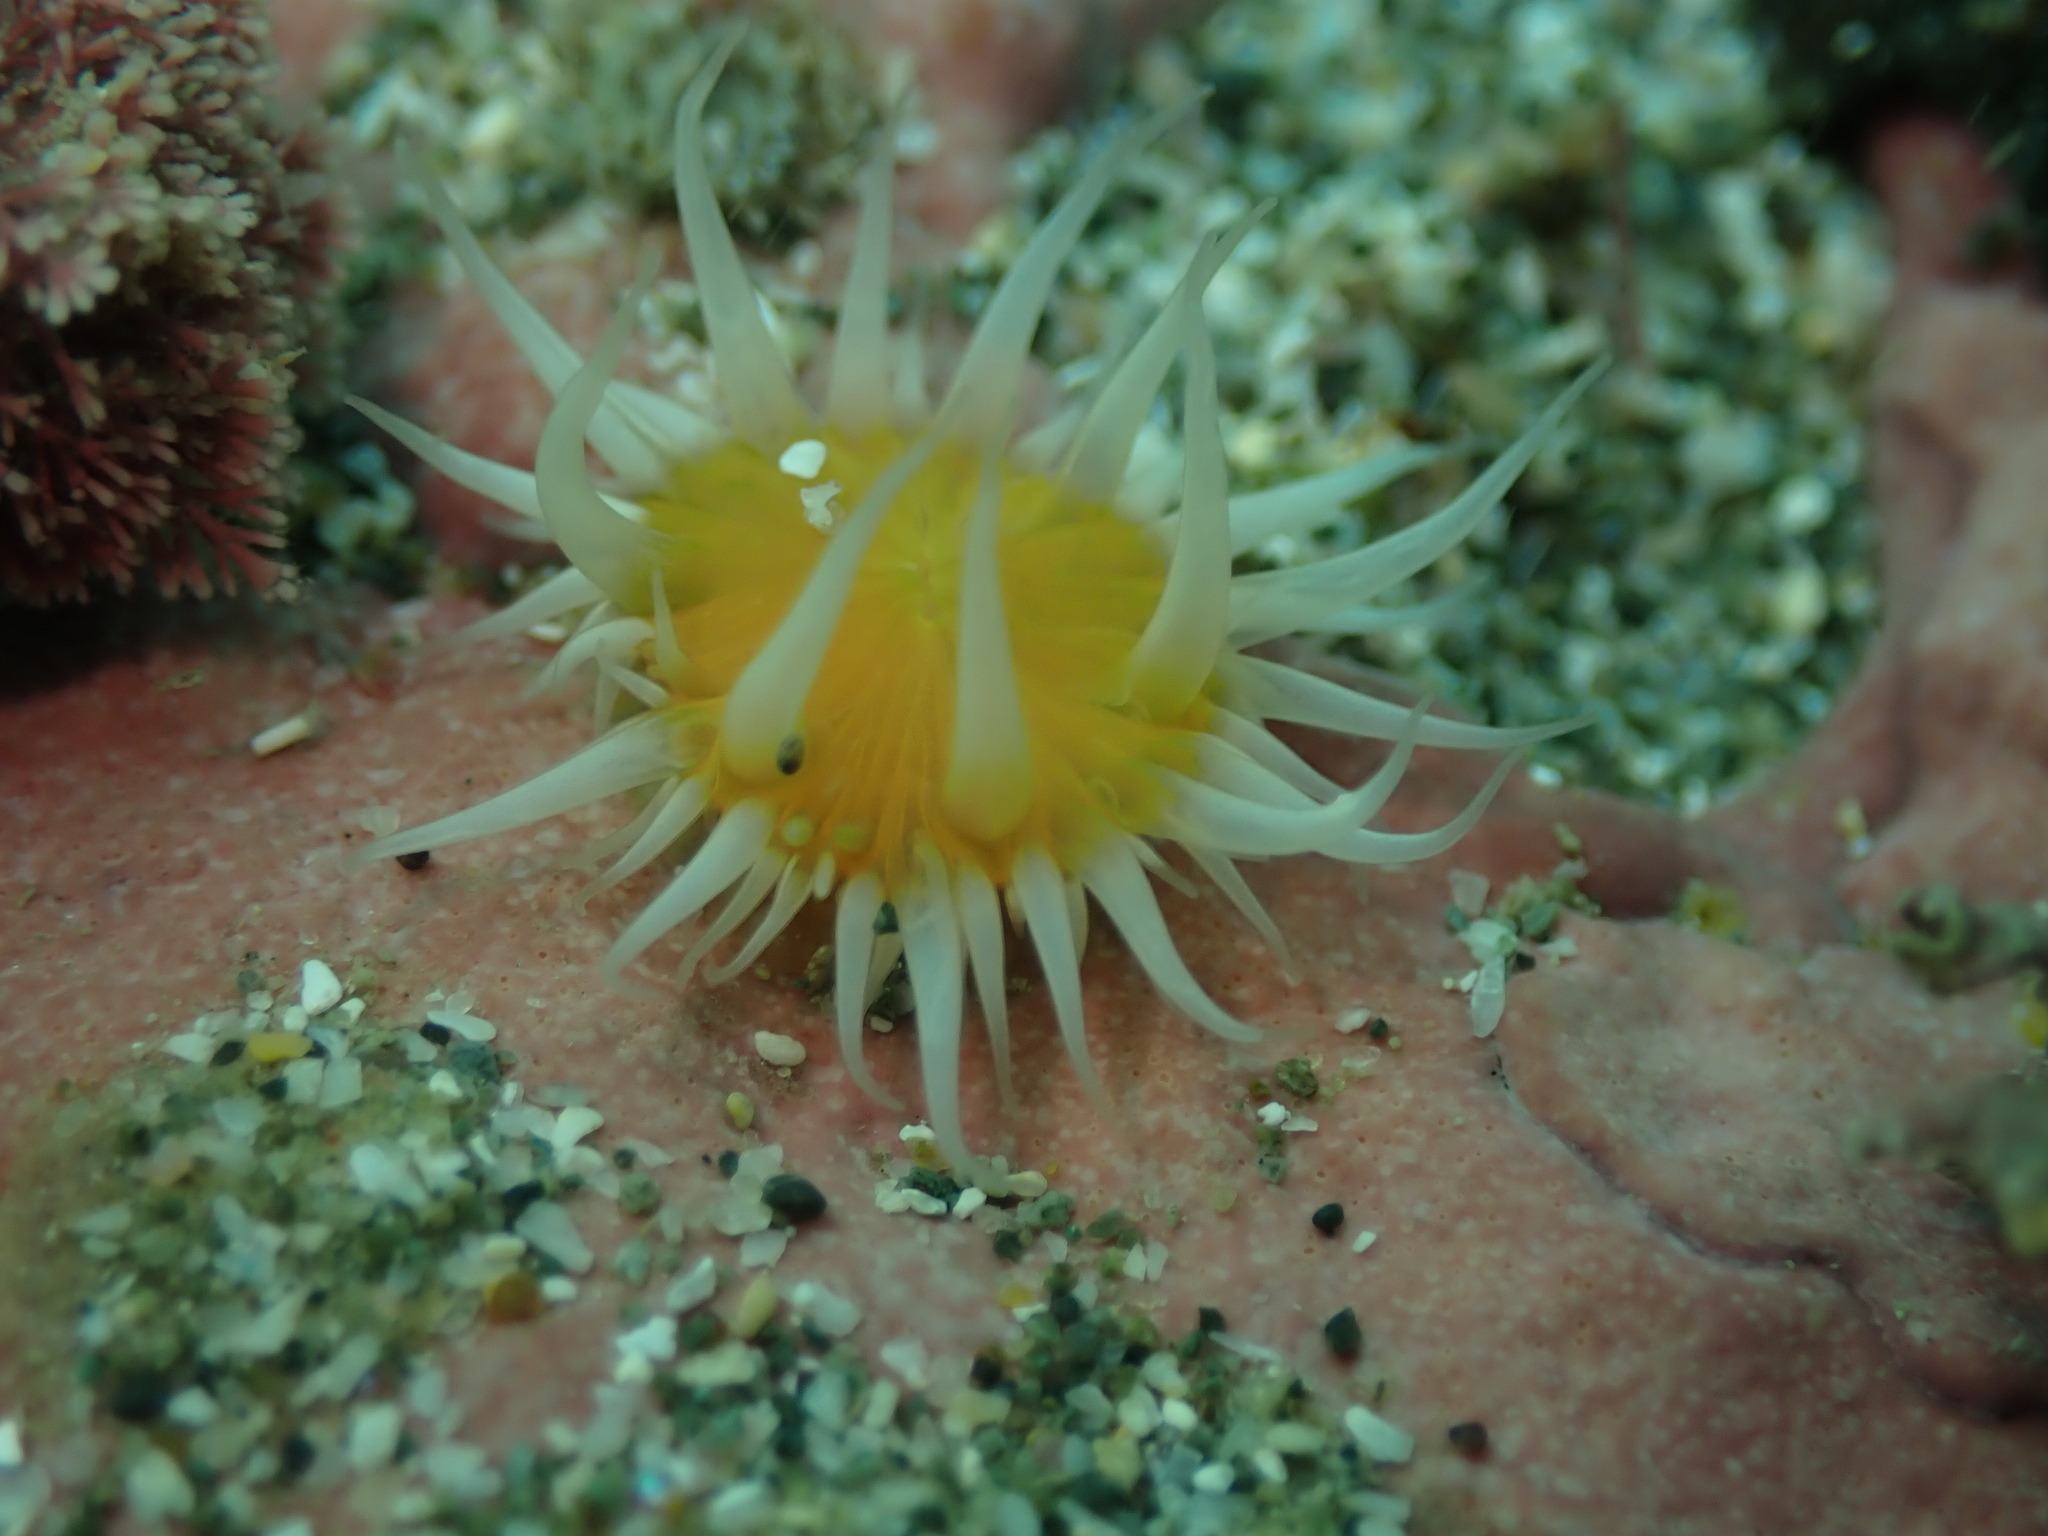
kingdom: Animalia
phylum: Cnidaria
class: Anthozoa
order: Actiniaria
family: Sagartiidae
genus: Anthothoe
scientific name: Anthothoe albocincta
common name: Orange striped anemone
